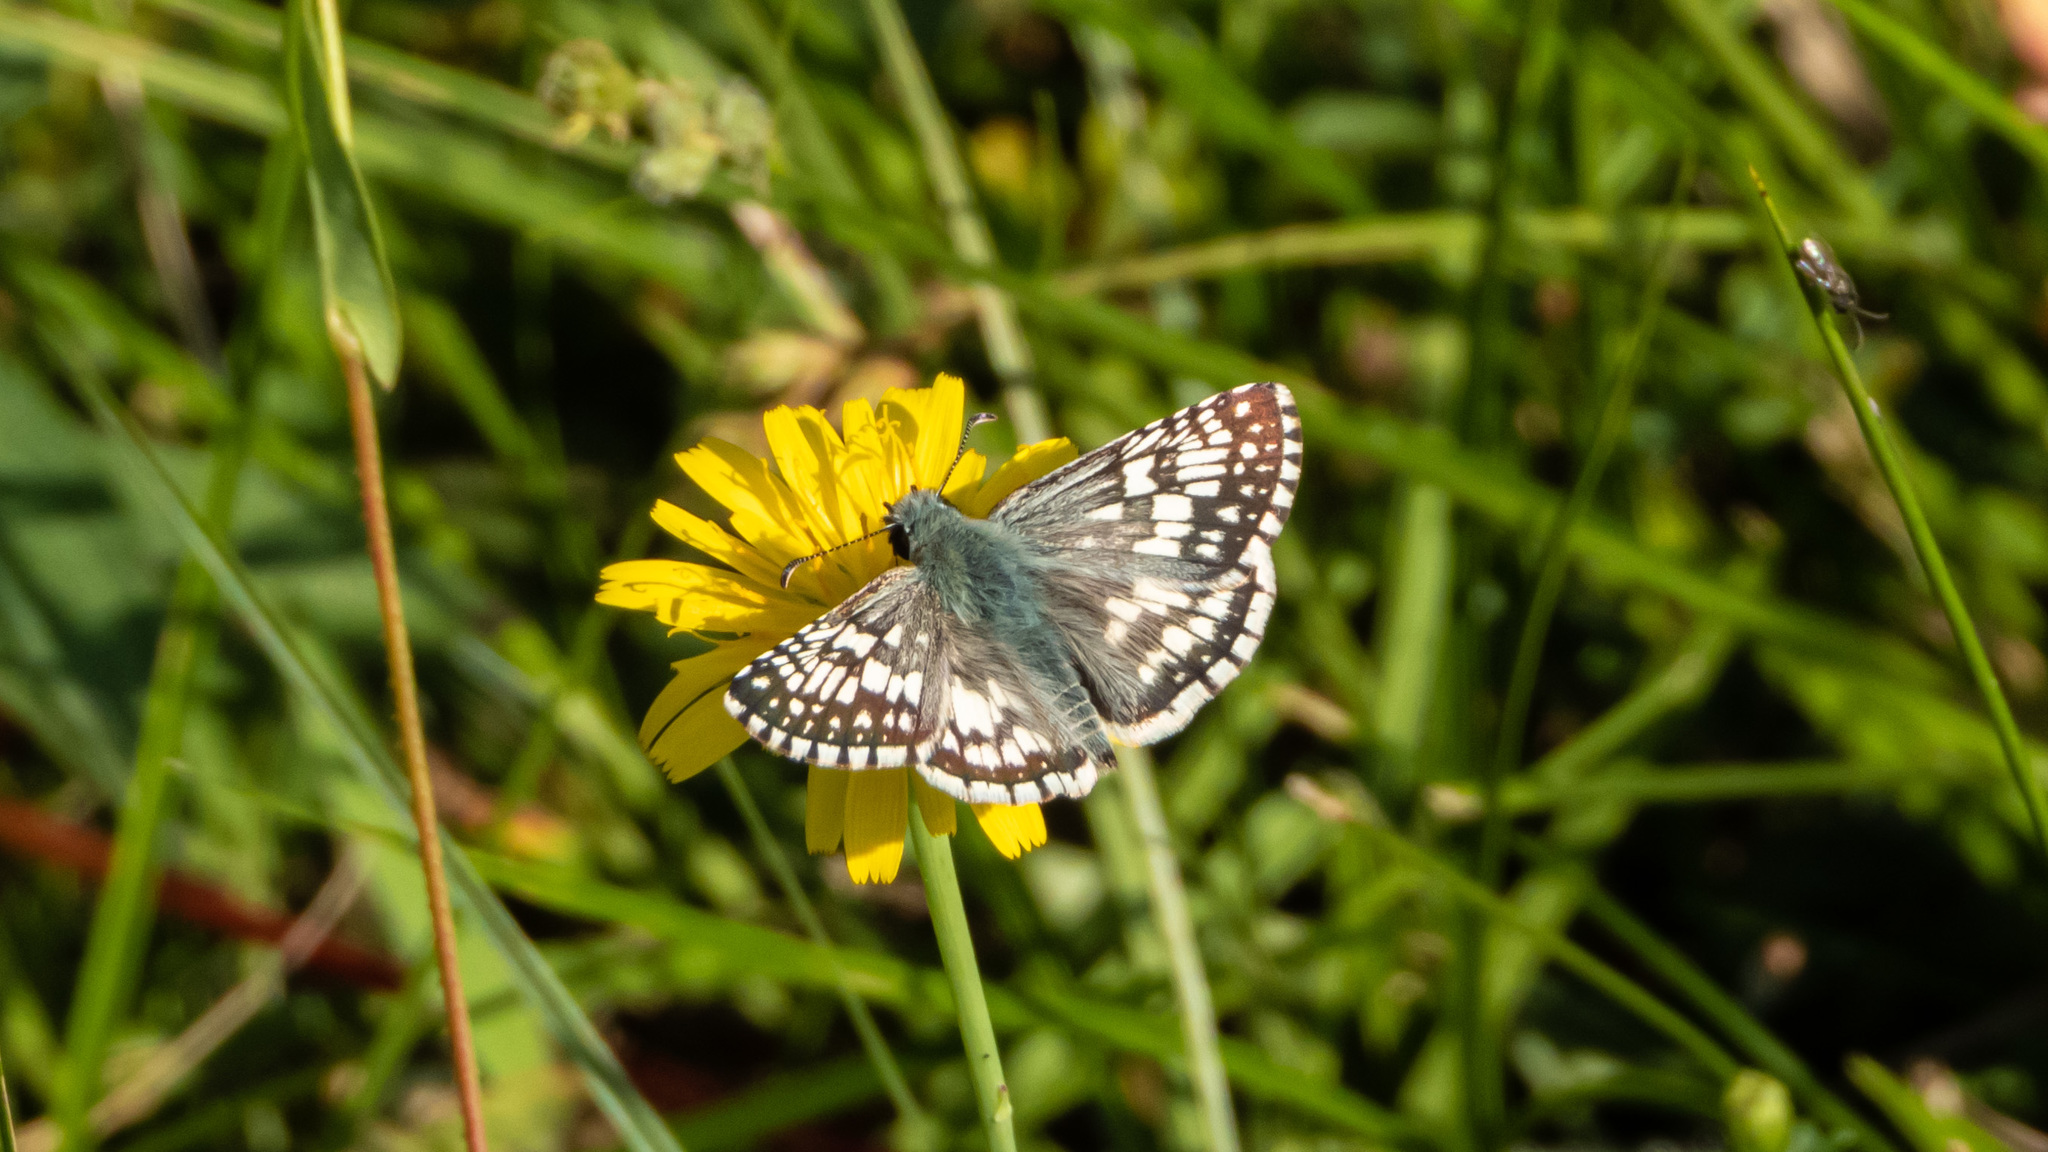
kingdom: Animalia
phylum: Arthropoda
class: Insecta
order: Lepidoptera
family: Hesperiidae
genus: Burnsius
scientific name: Burnsius communis
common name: Common checkered-skipper
